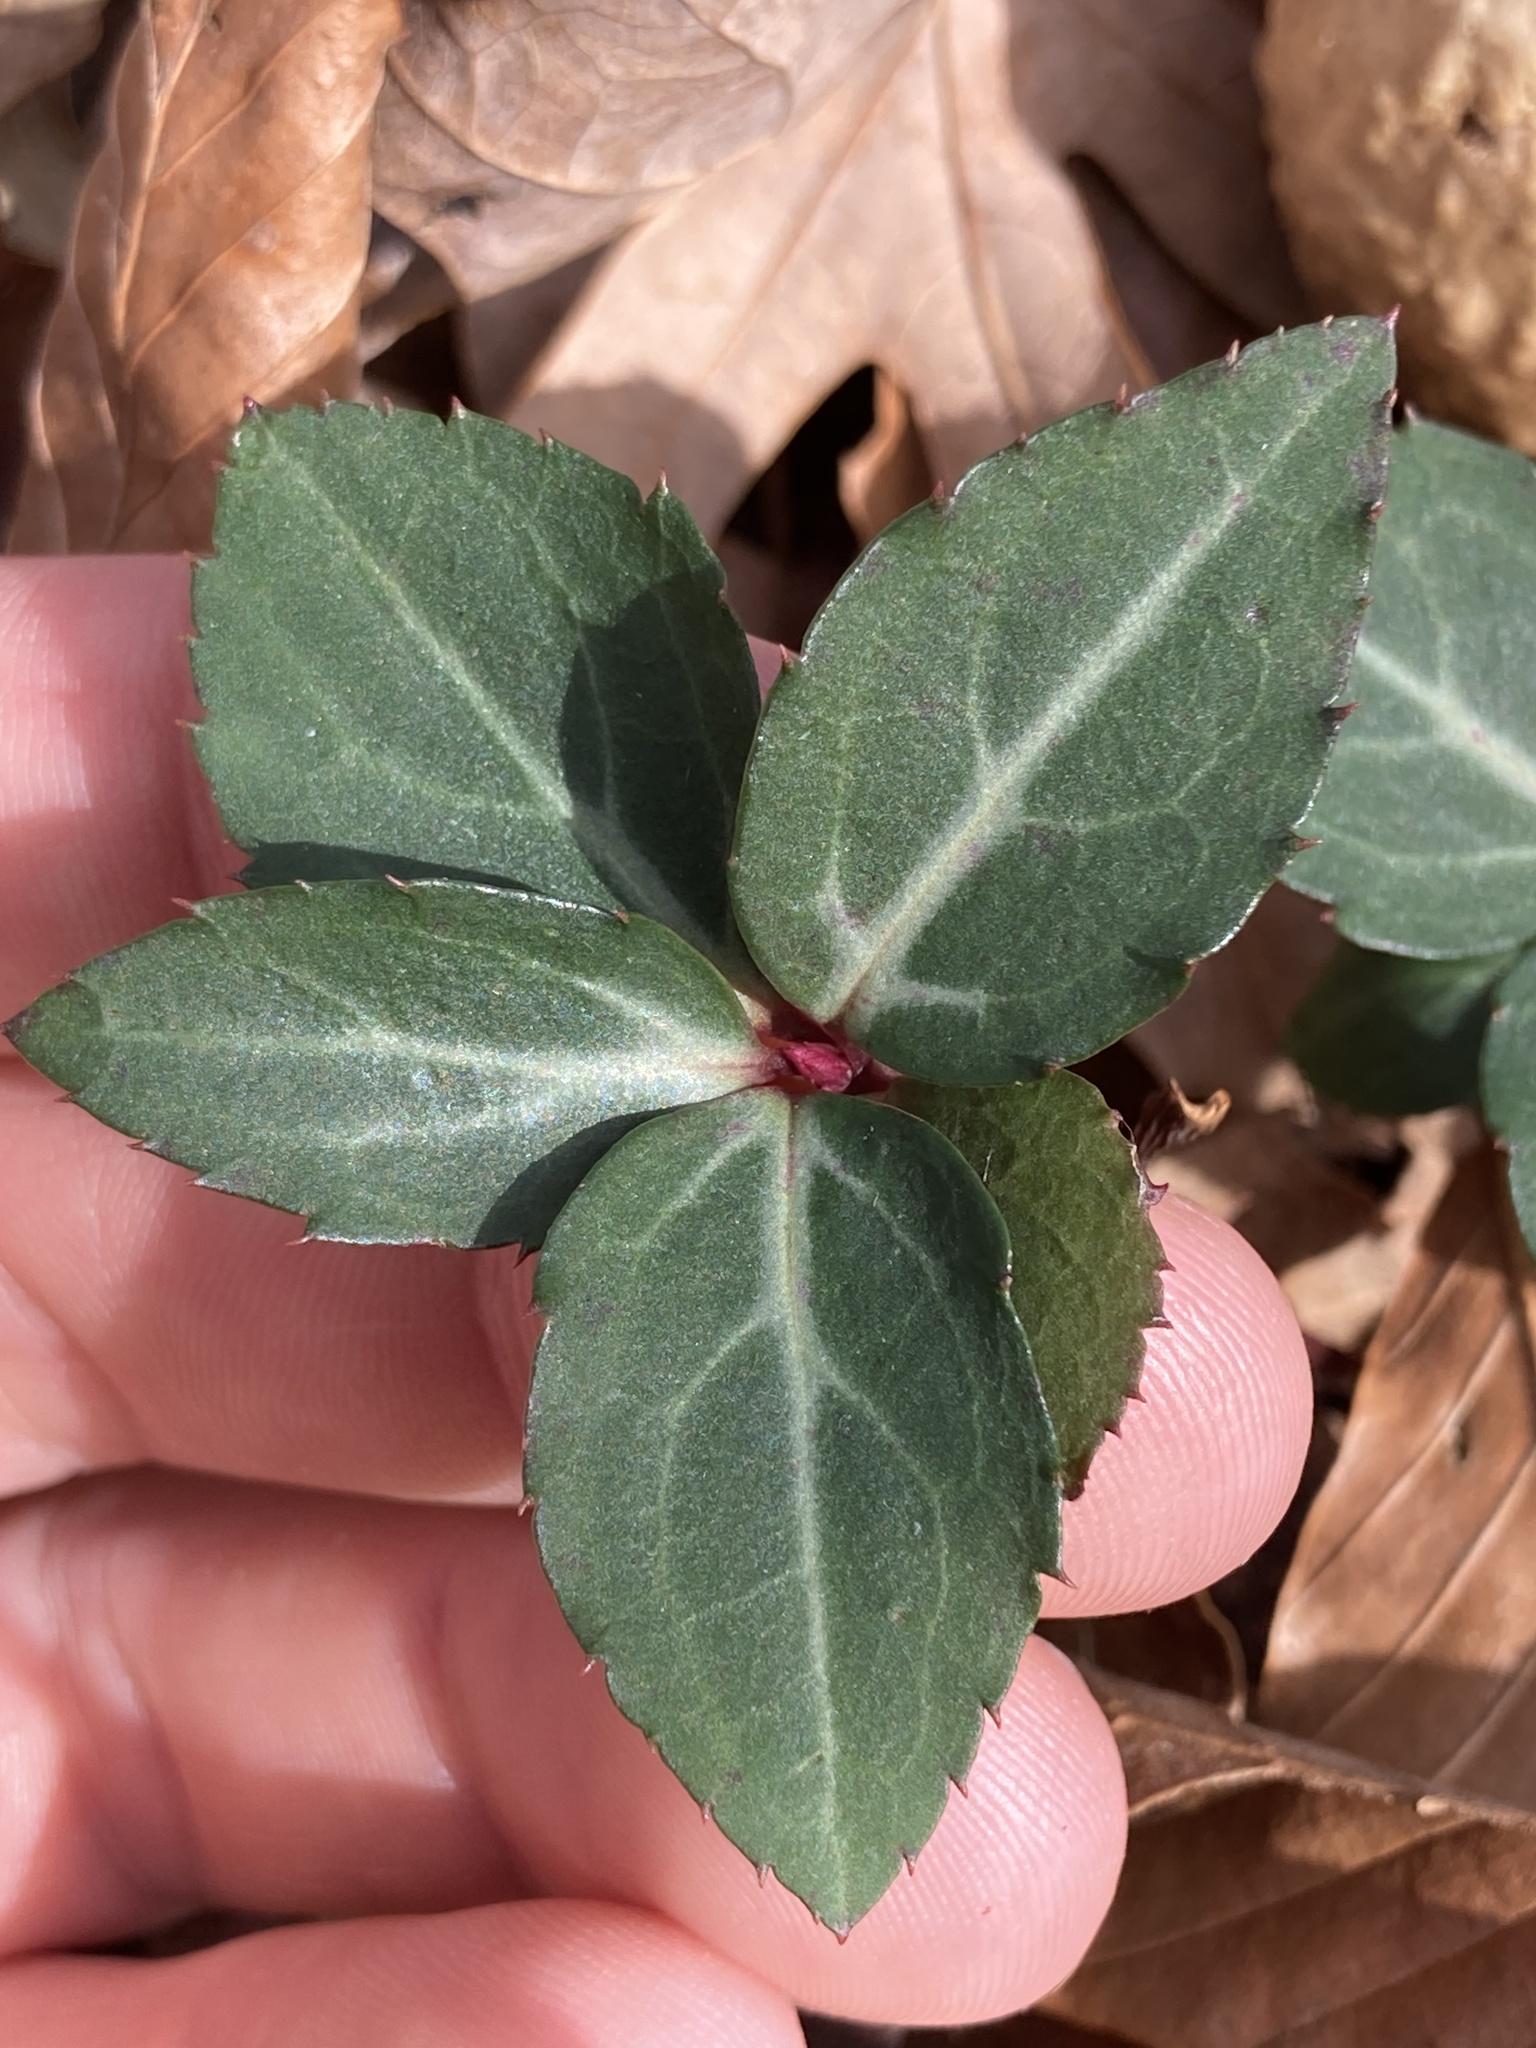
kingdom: Plantae
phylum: Tracheophyta
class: Magnoliopsida
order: Ericales
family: Ericaceae
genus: Chimaphila
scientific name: Chimaphila maculata
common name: Spotted pipsissewa
